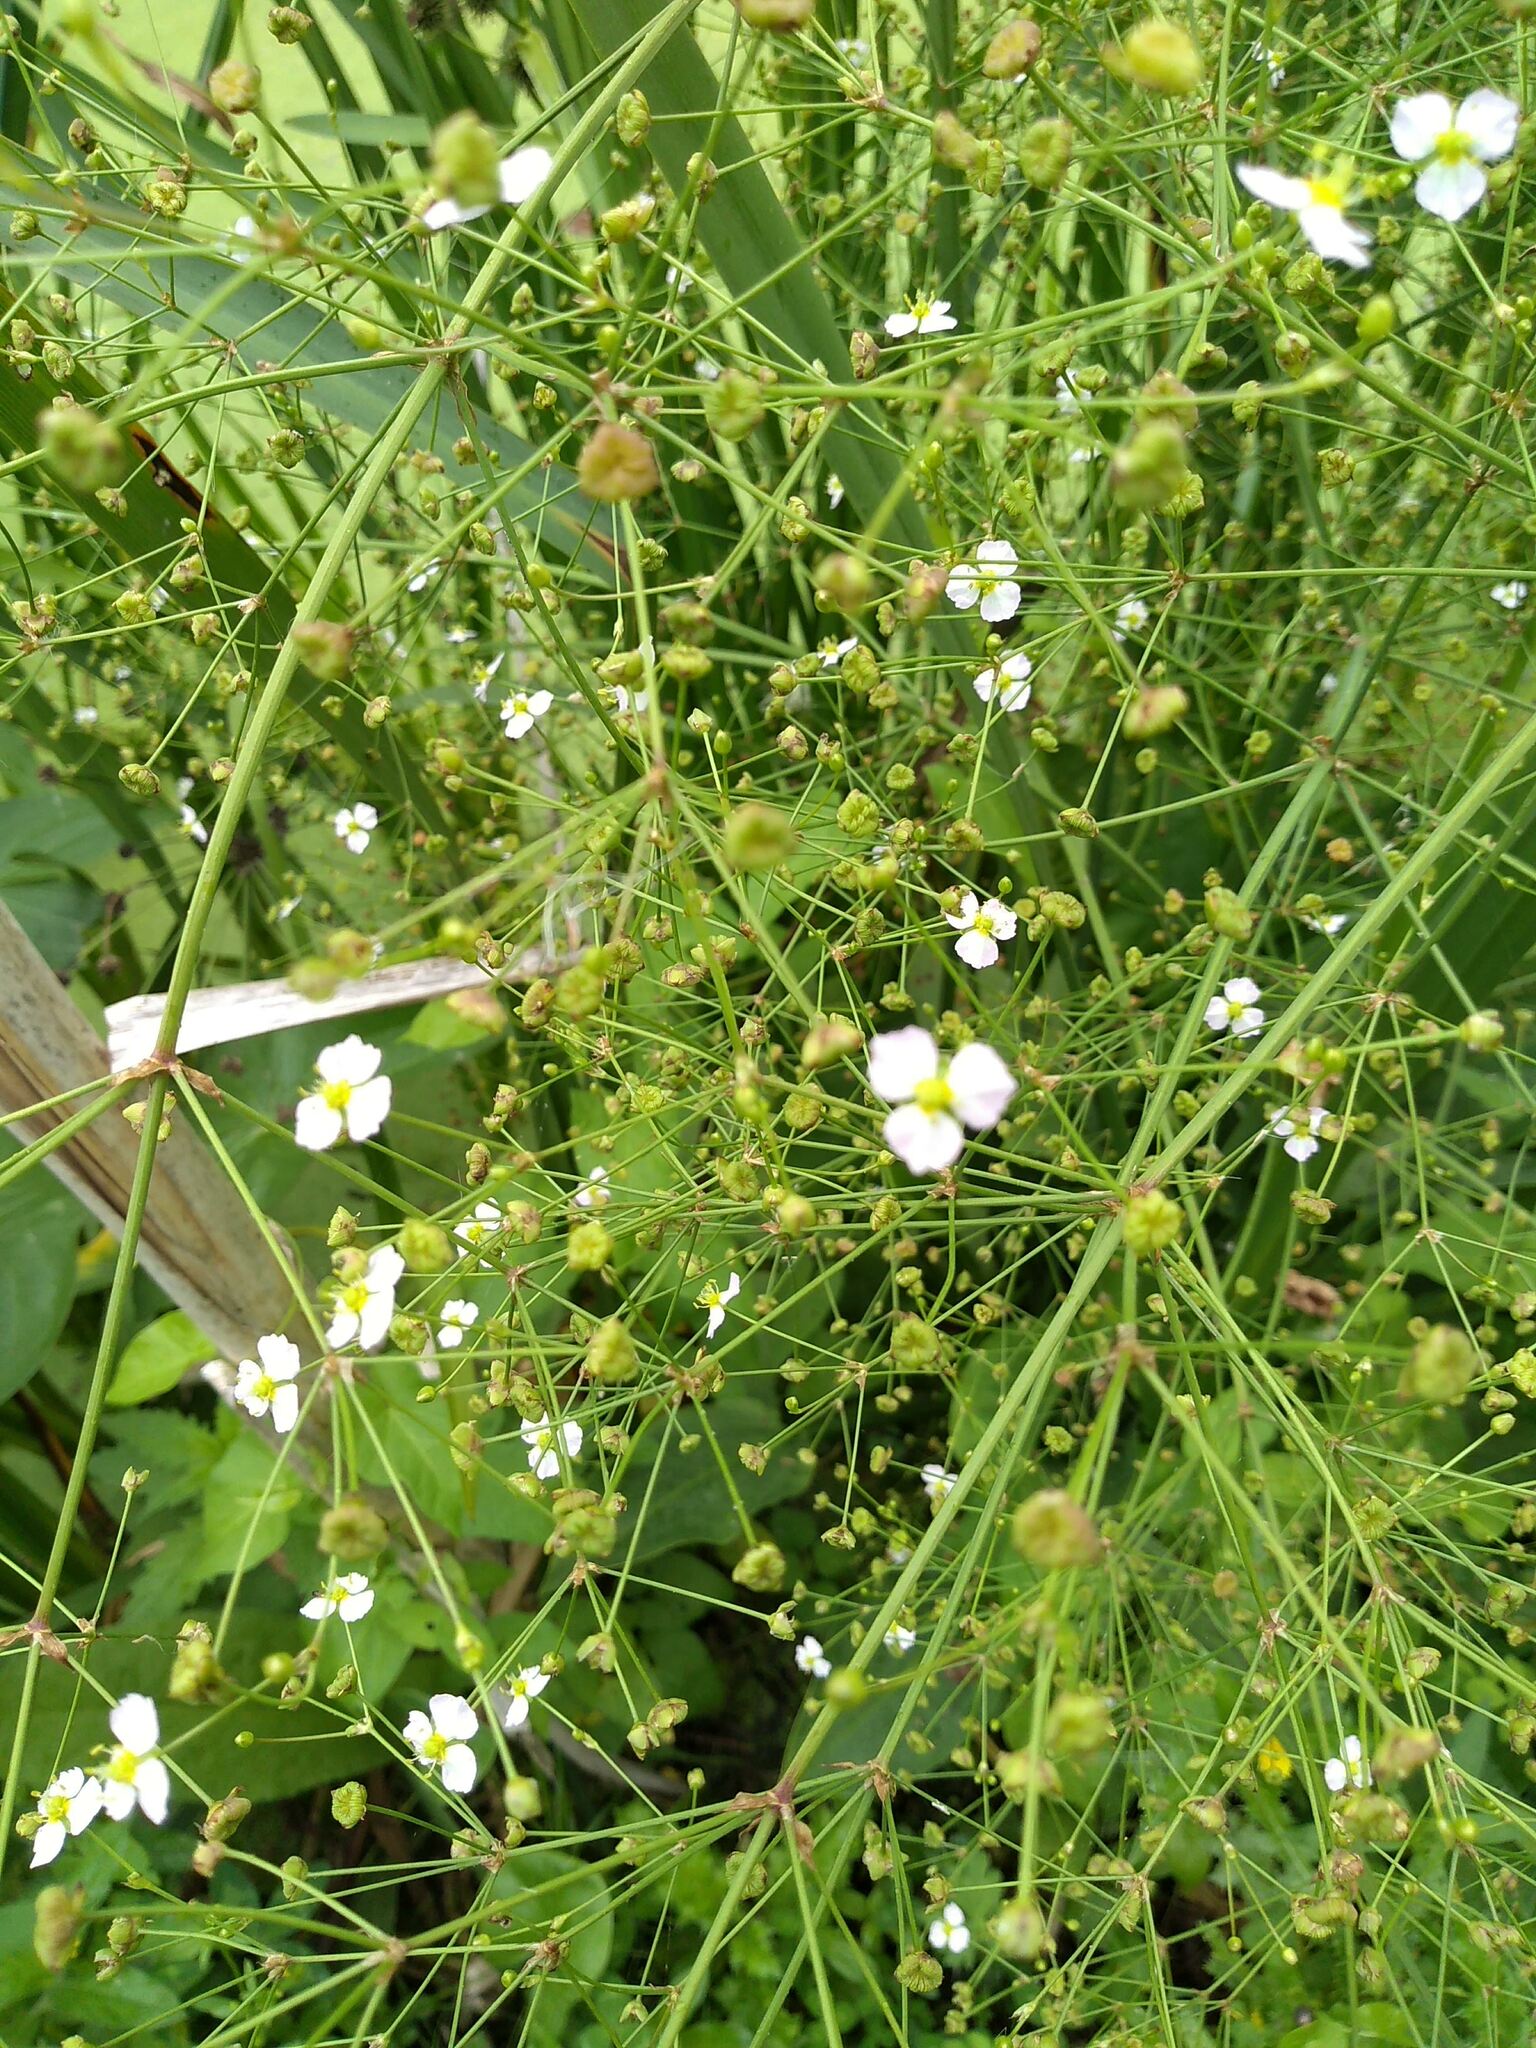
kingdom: Plantae
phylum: Tracheophyta
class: Liliopsida
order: Alismatales
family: Alismataceae
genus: Alisma
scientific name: Alisma plantago-aquatica
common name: Water-plantain
